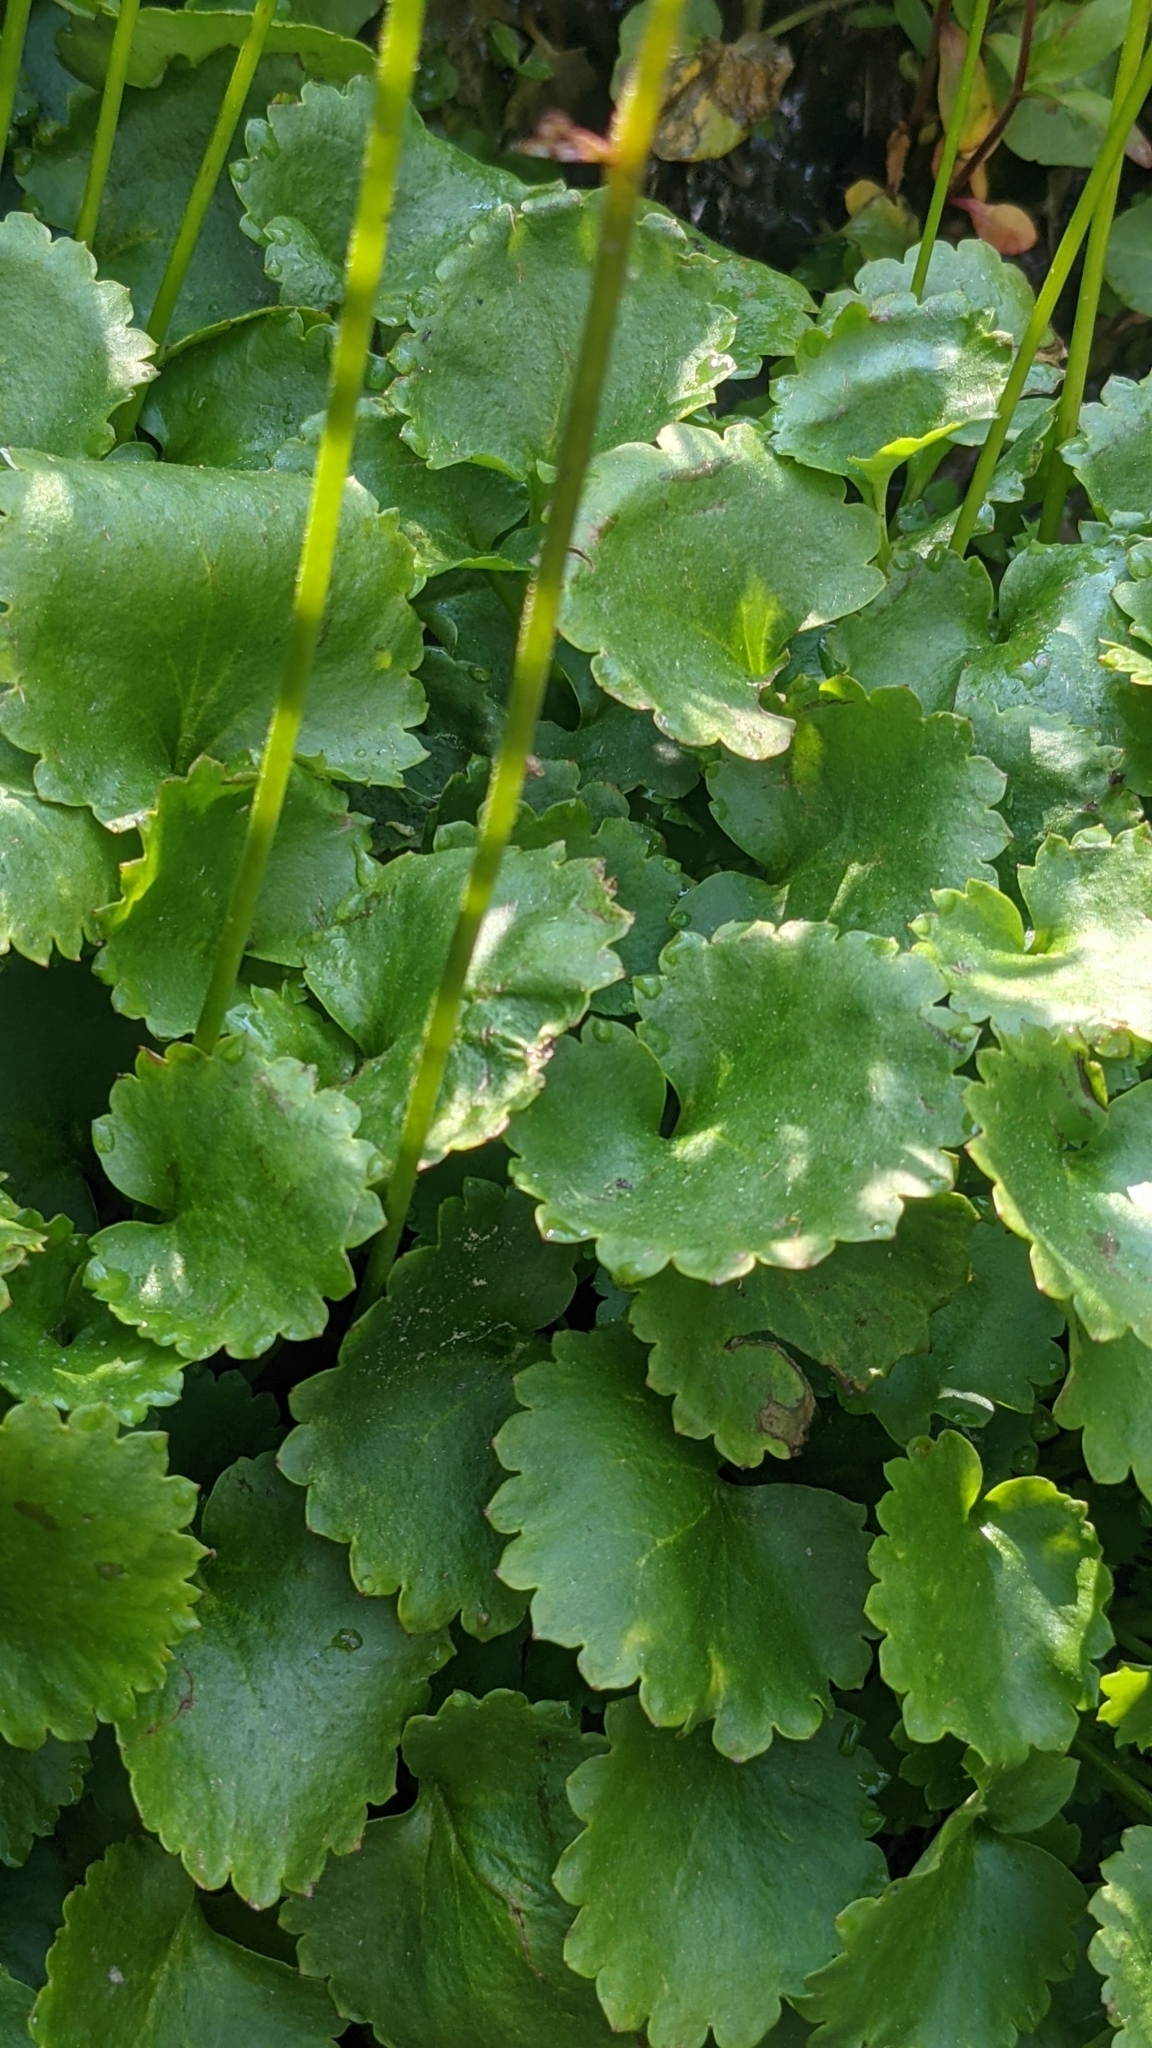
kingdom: Plantae
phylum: Tracheophyta
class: Magnoliopsida
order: Saxifragales
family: Saxifragaceae
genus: Micranthes
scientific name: Micranthes odontoloma
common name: Brook saxifrage
